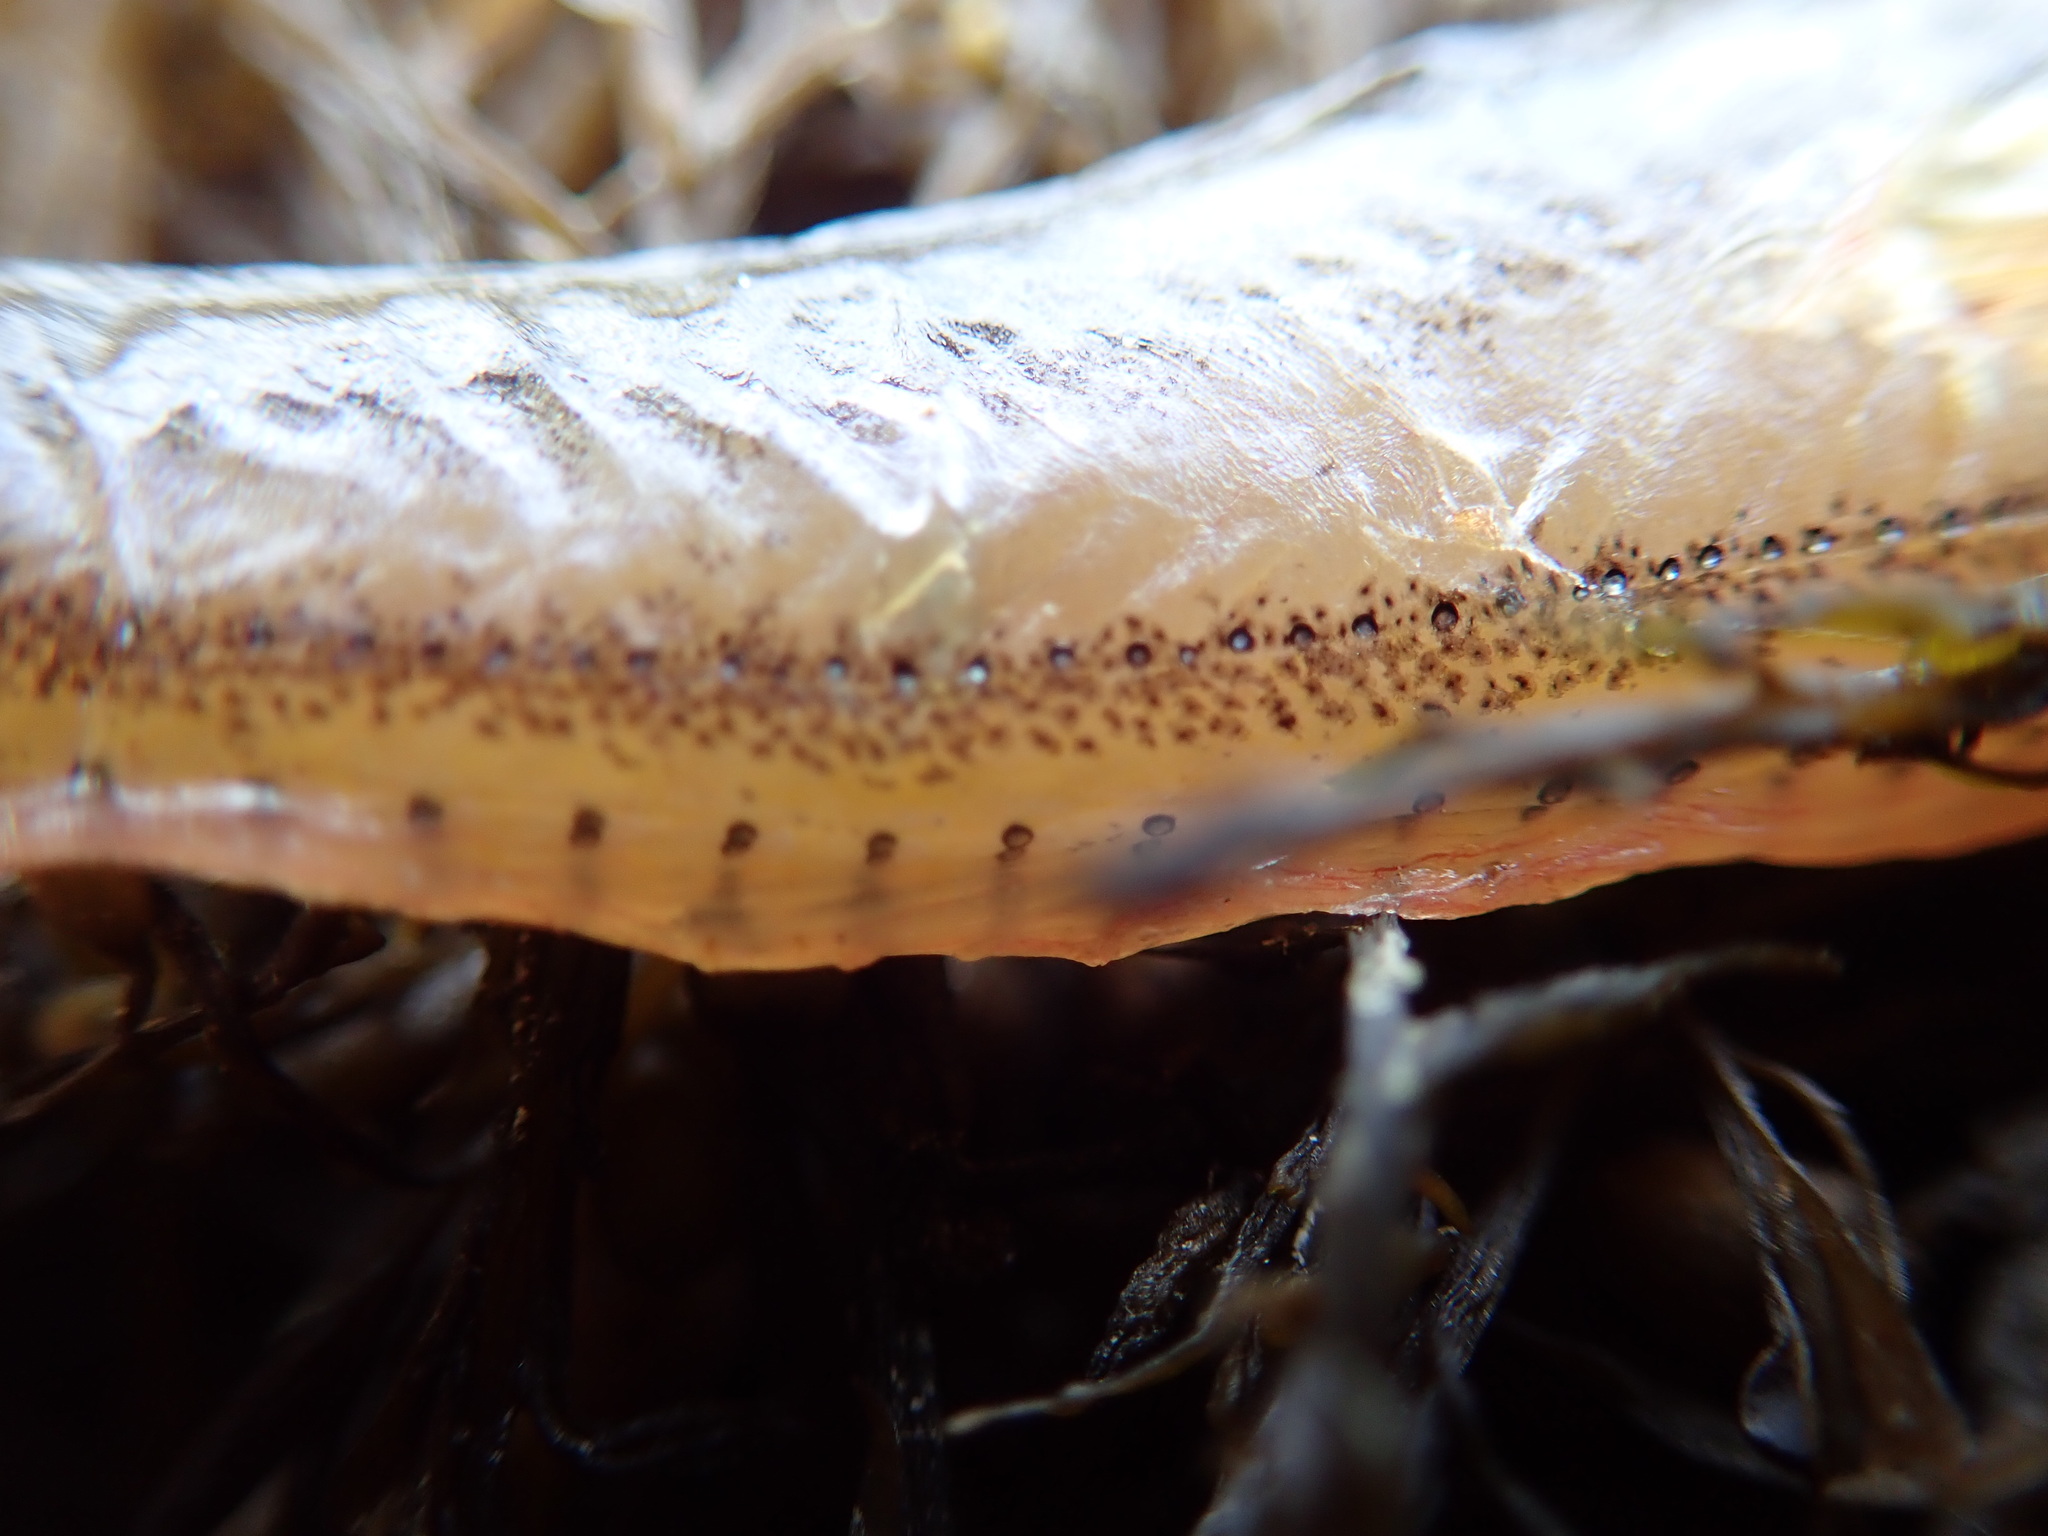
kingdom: Animalia
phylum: Chordata
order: Batrachoidiformes
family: Batrachoididae
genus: Porichthys
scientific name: Porichthys notatus
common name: Plainfin midshipman
